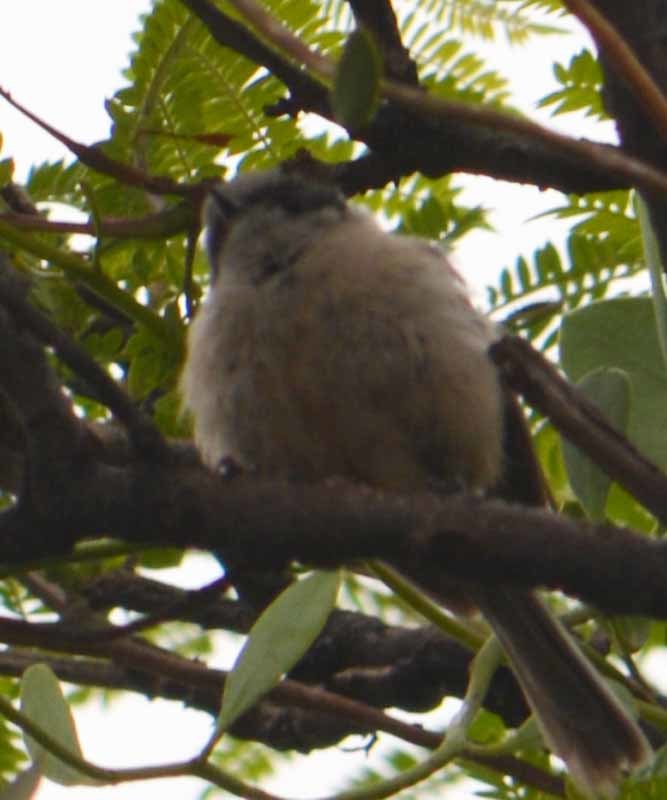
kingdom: Animalia
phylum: Chordata
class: Aves
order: Passeriformes
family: Aegithalidae
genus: Psaltriparus
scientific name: Psaltriparus minimus
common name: American bushtit
